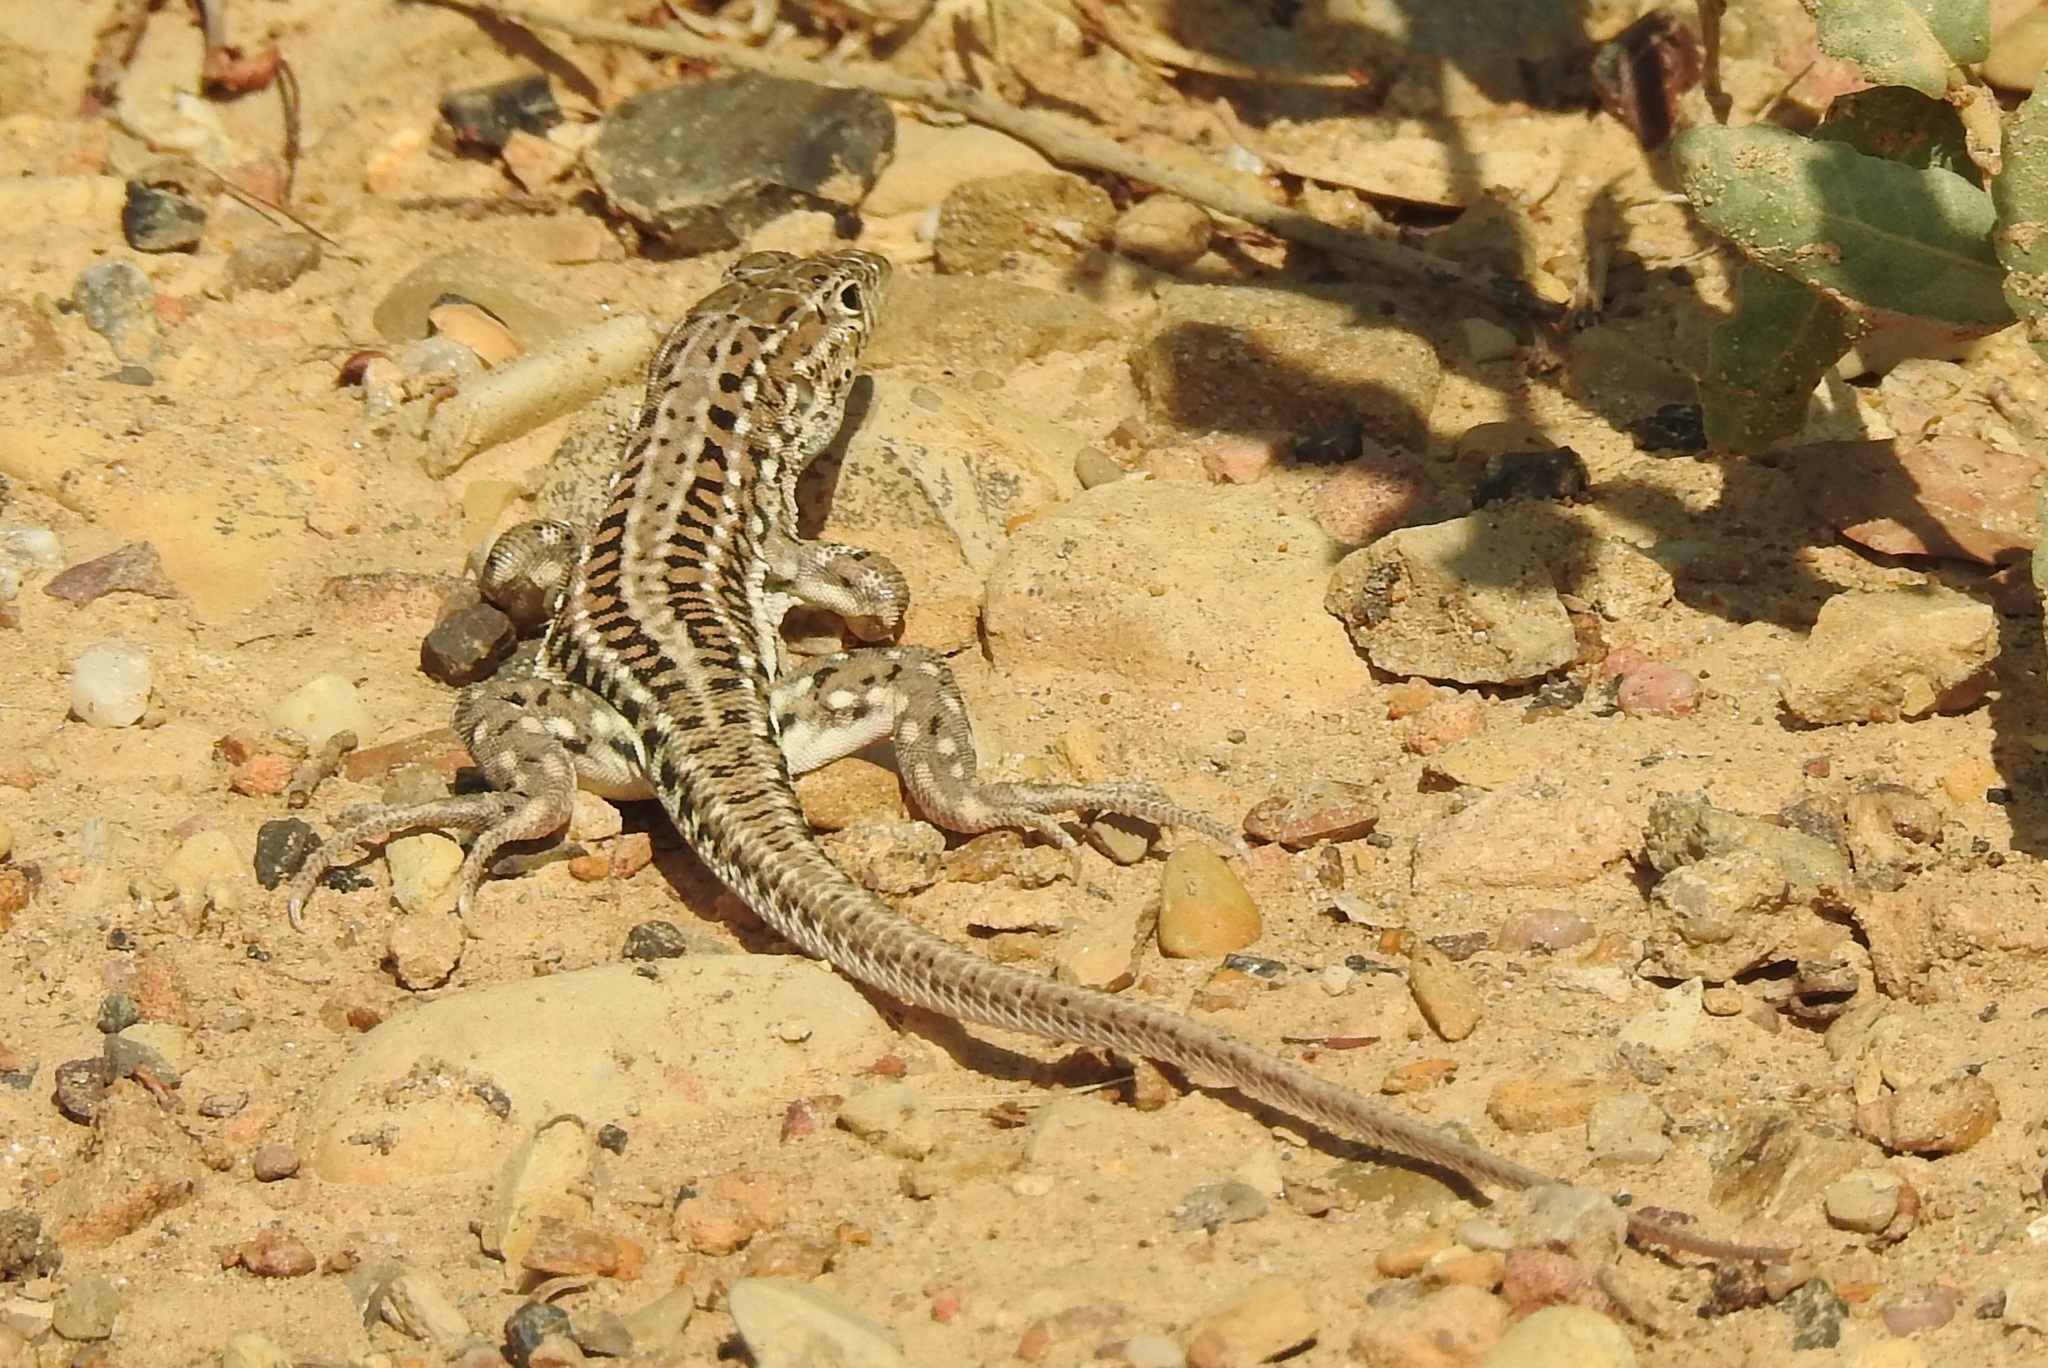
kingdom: Animalia
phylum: Chordata
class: Squamata
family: Lacertidae
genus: Acanthodactylus
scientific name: Acanthodactylus erythrurus
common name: Spiny-footed lizard
